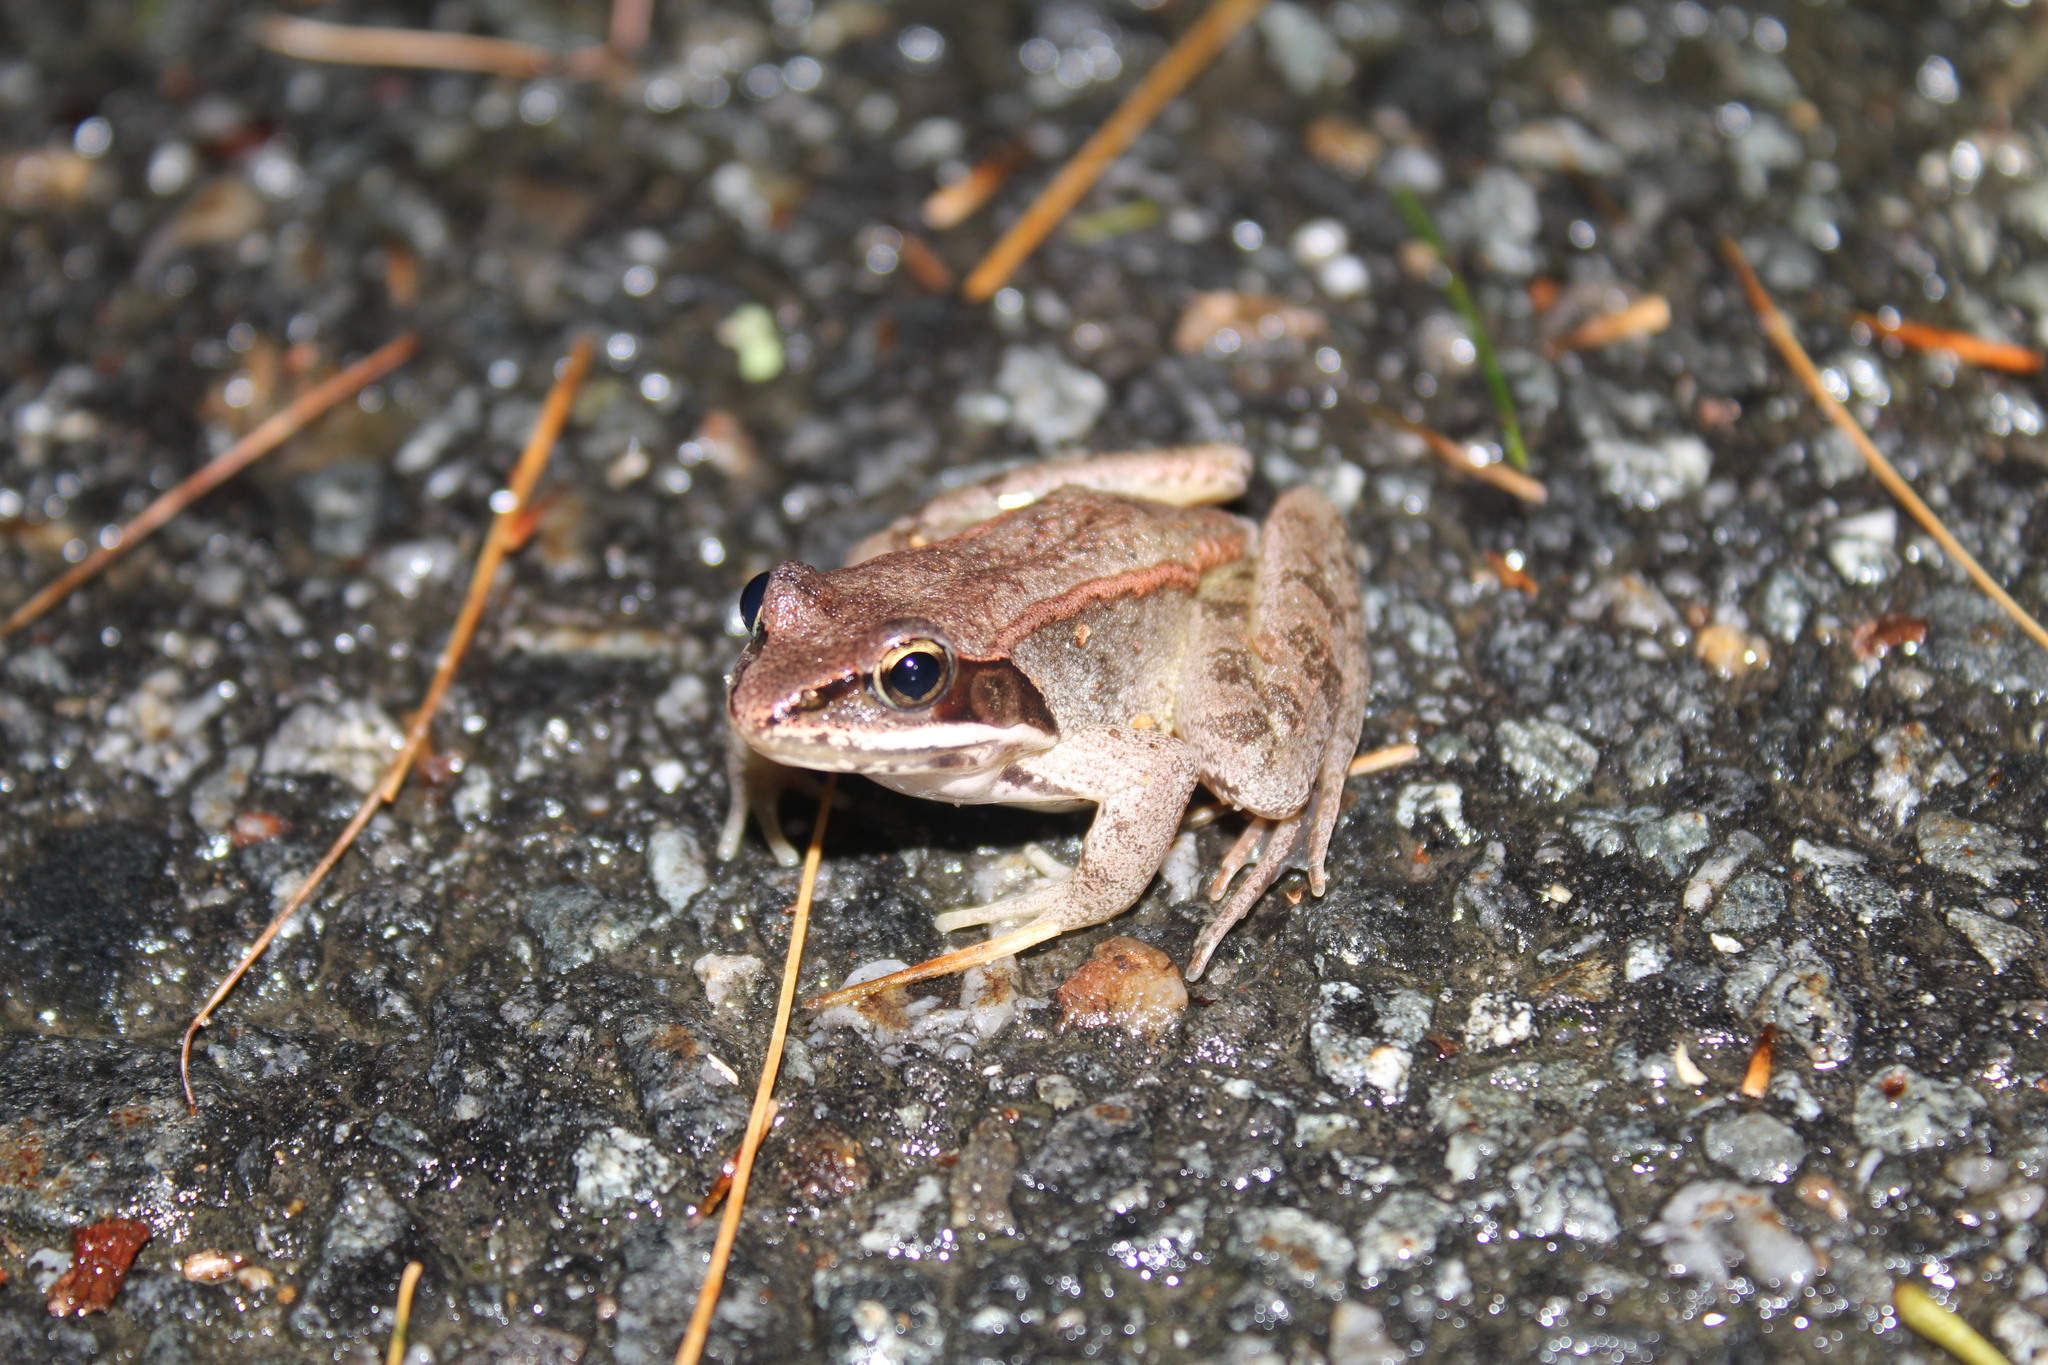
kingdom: Animalia
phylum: Chordata
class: Amphibia
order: Anura
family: Ranidae
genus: Lithobates
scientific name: Lithobates sylvaticus
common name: Wood frog
